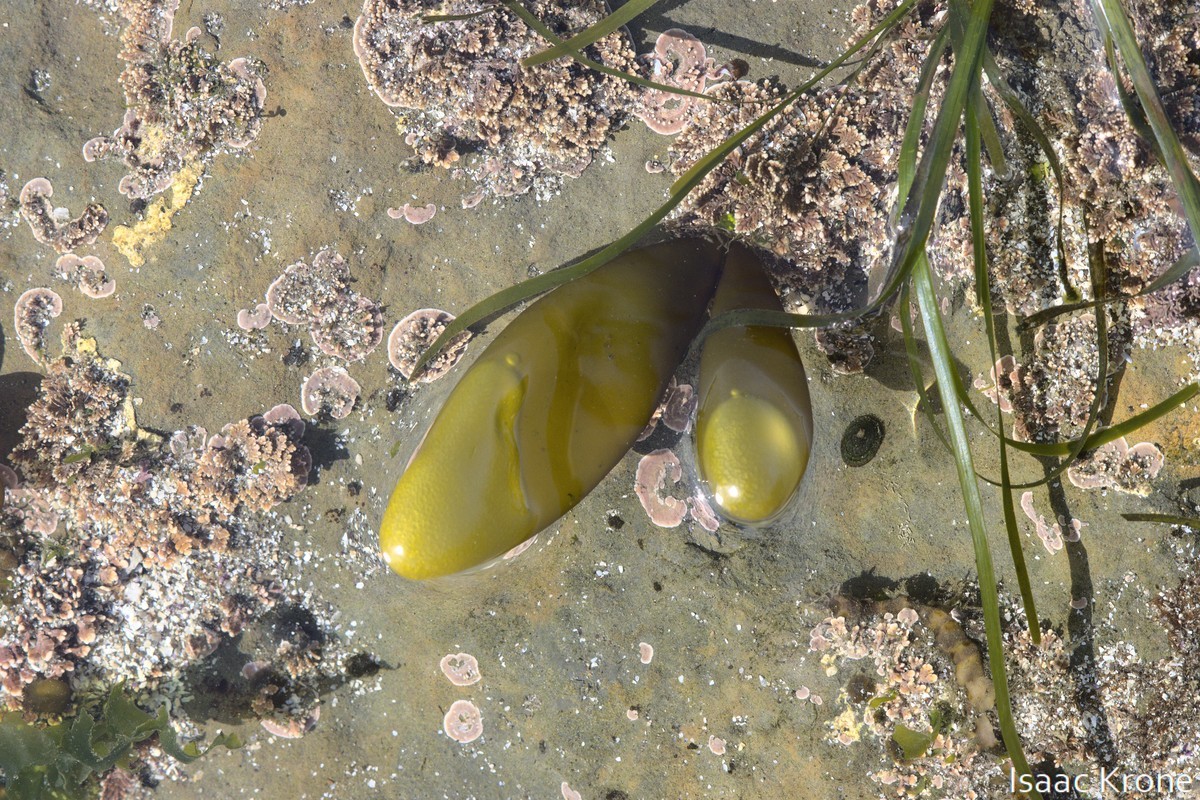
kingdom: Plantae
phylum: Rhodophyta
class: Florideophyceae
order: Palmariales
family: Palmariaceae
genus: Halosaccion
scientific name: Halosaccion glandiforme
